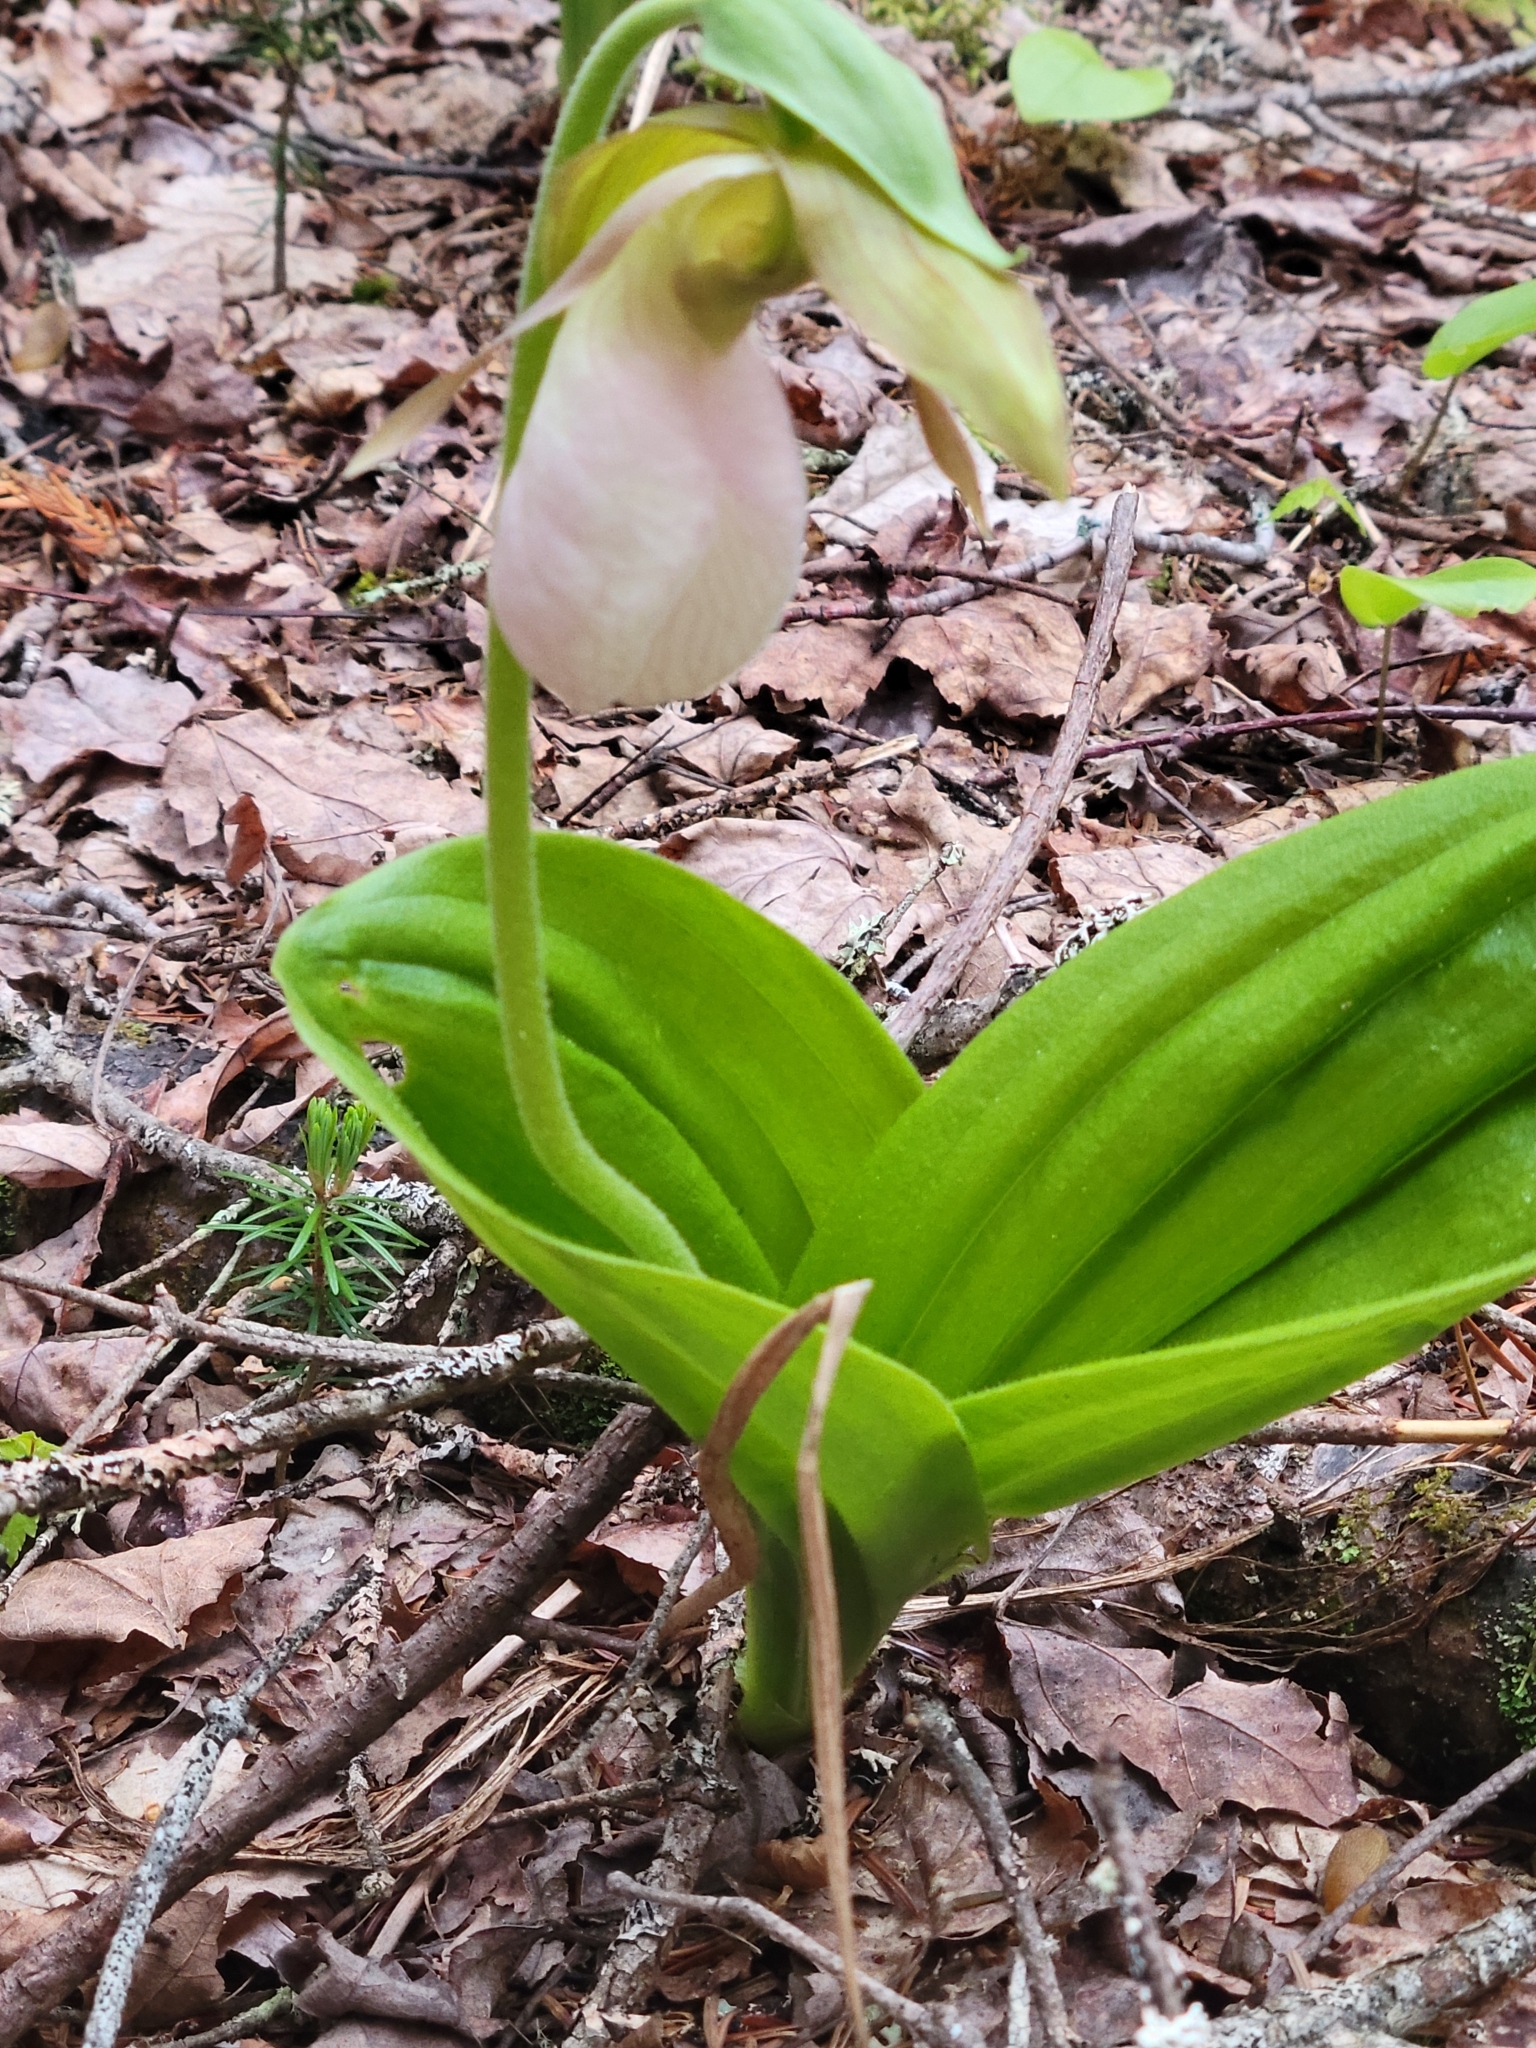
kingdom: Plantae
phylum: Tracheophyta
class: Liliopsida
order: Asparagales
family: Orchidaceae
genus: Cypripedium
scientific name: Cypripedium acaule
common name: Pink lady's-slipper
